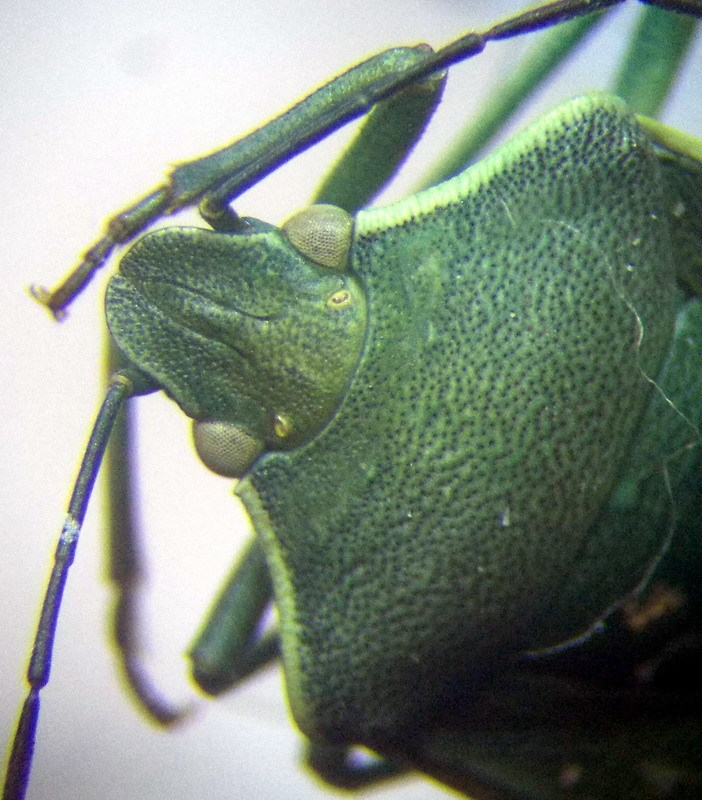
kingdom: Animalia
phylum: Arthropoda
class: Insecta
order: Hemiptera
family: Pentatomidae
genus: Brachynema
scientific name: Brachynema germarii
